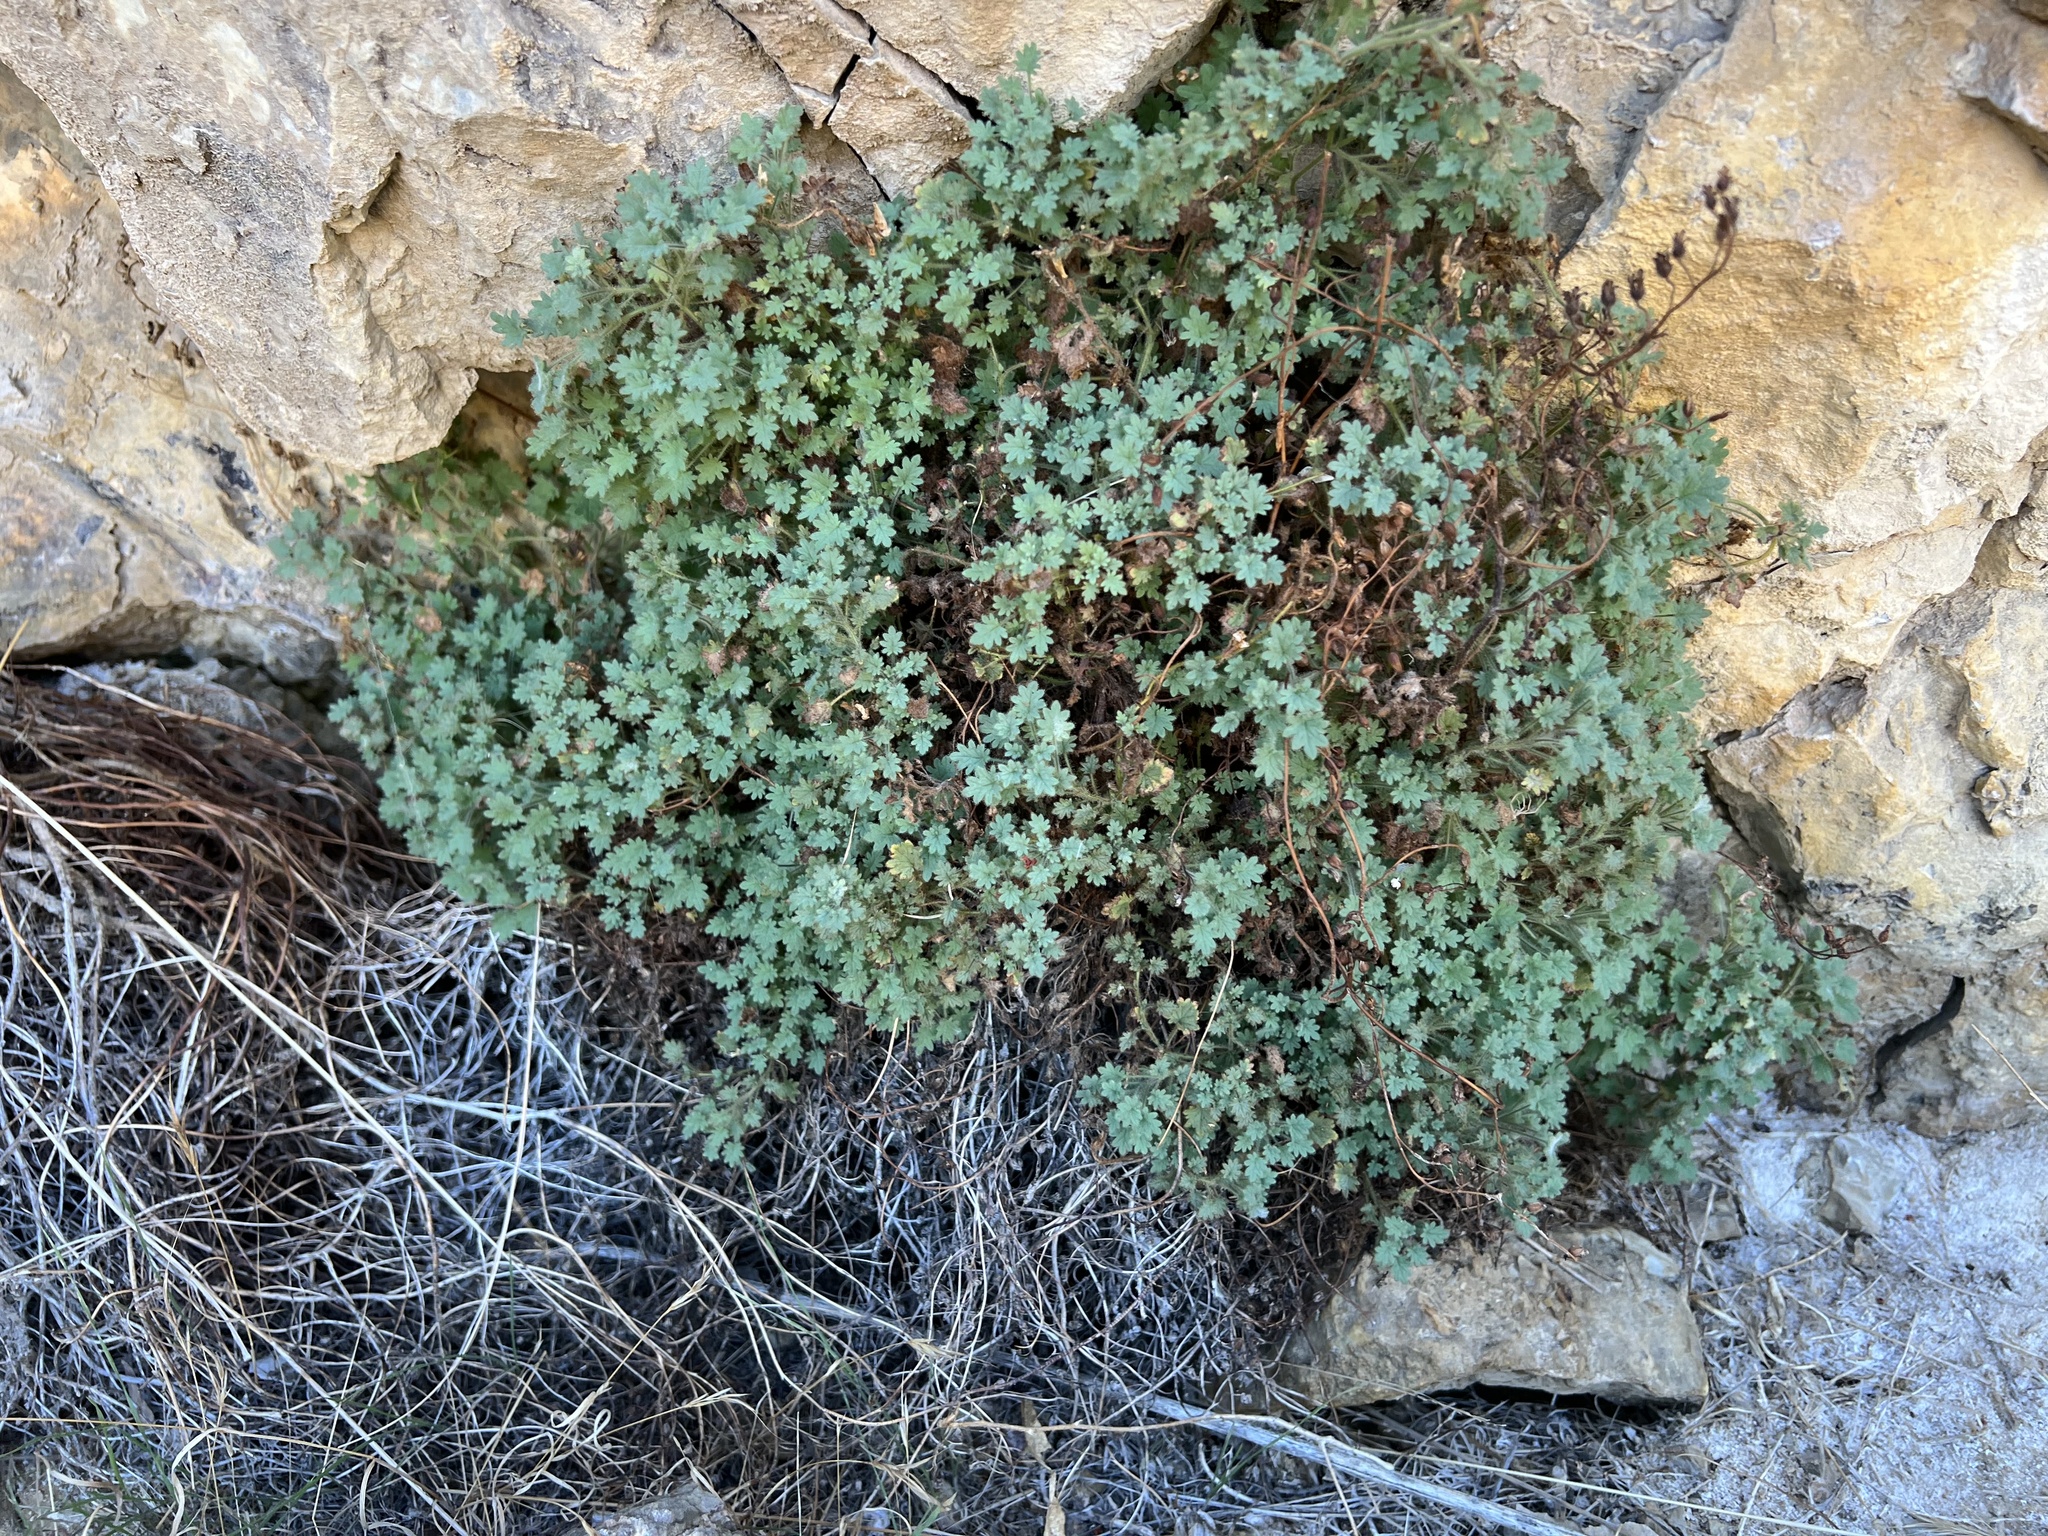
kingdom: Plantae
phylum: Tracheophyta
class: Magnoliopsida
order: Boraginales
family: Hydrophyllaceae
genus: Phacelia
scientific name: Phacelia perityloides
